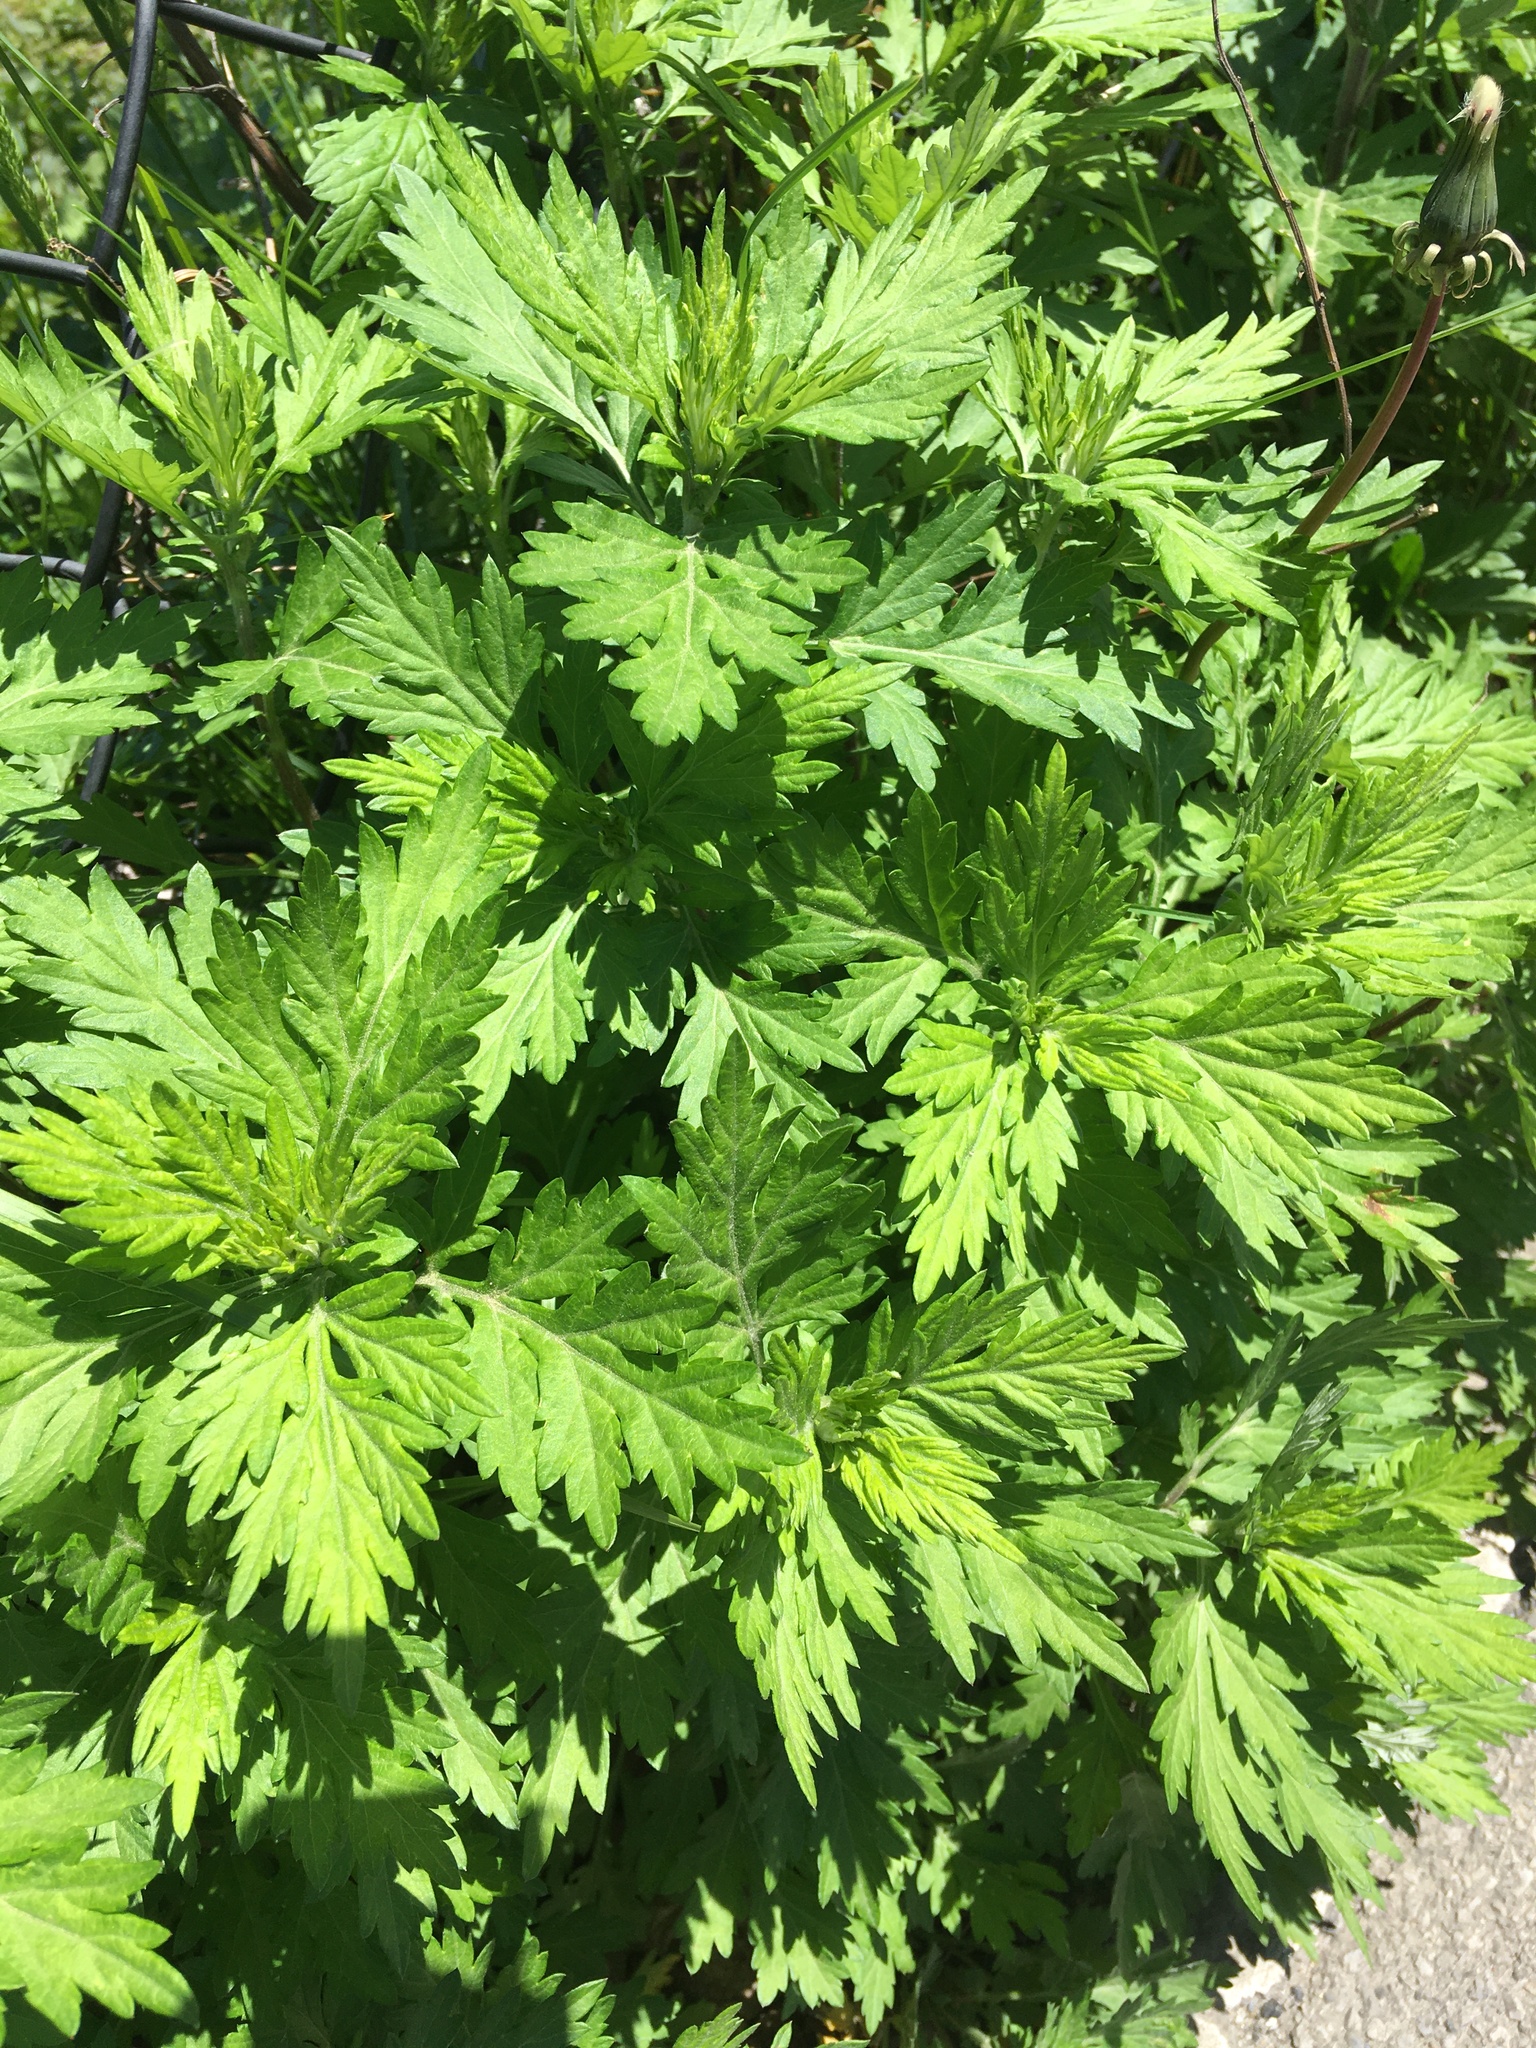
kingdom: Plantae
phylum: Tracheophyta
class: Magnoliopsida
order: Asterales
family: Asteraceae
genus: Artemisia
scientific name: Artemisia vulgaris
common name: Mugwort
